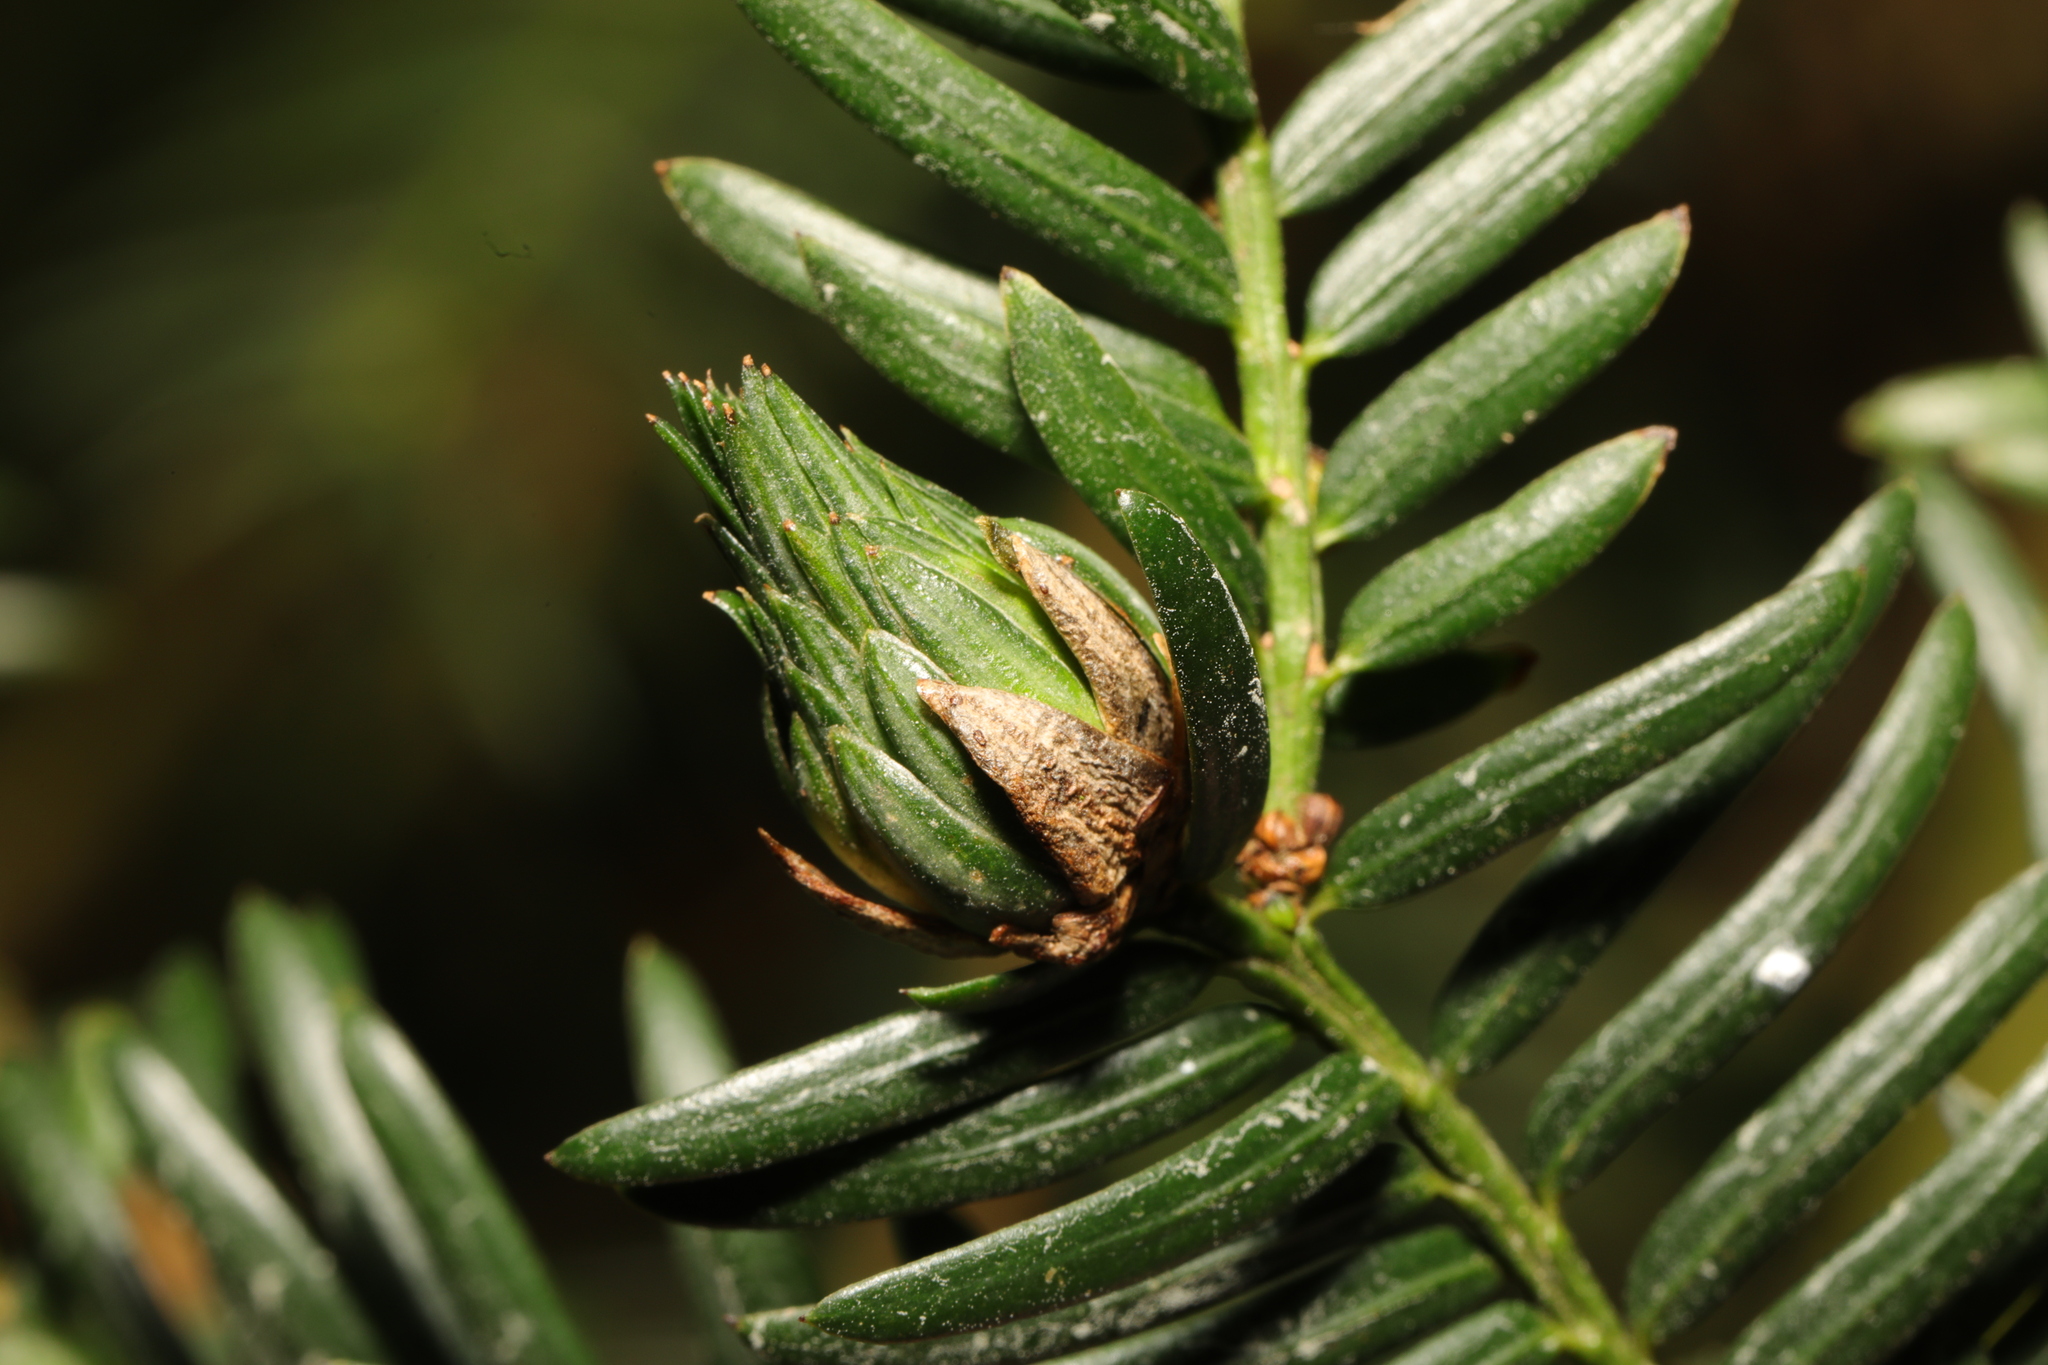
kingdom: Animalia
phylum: Arthropoda
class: Insecta
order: Diptera
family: Cecidomyiidae
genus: Taxomyia
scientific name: Taxomyia taxi
